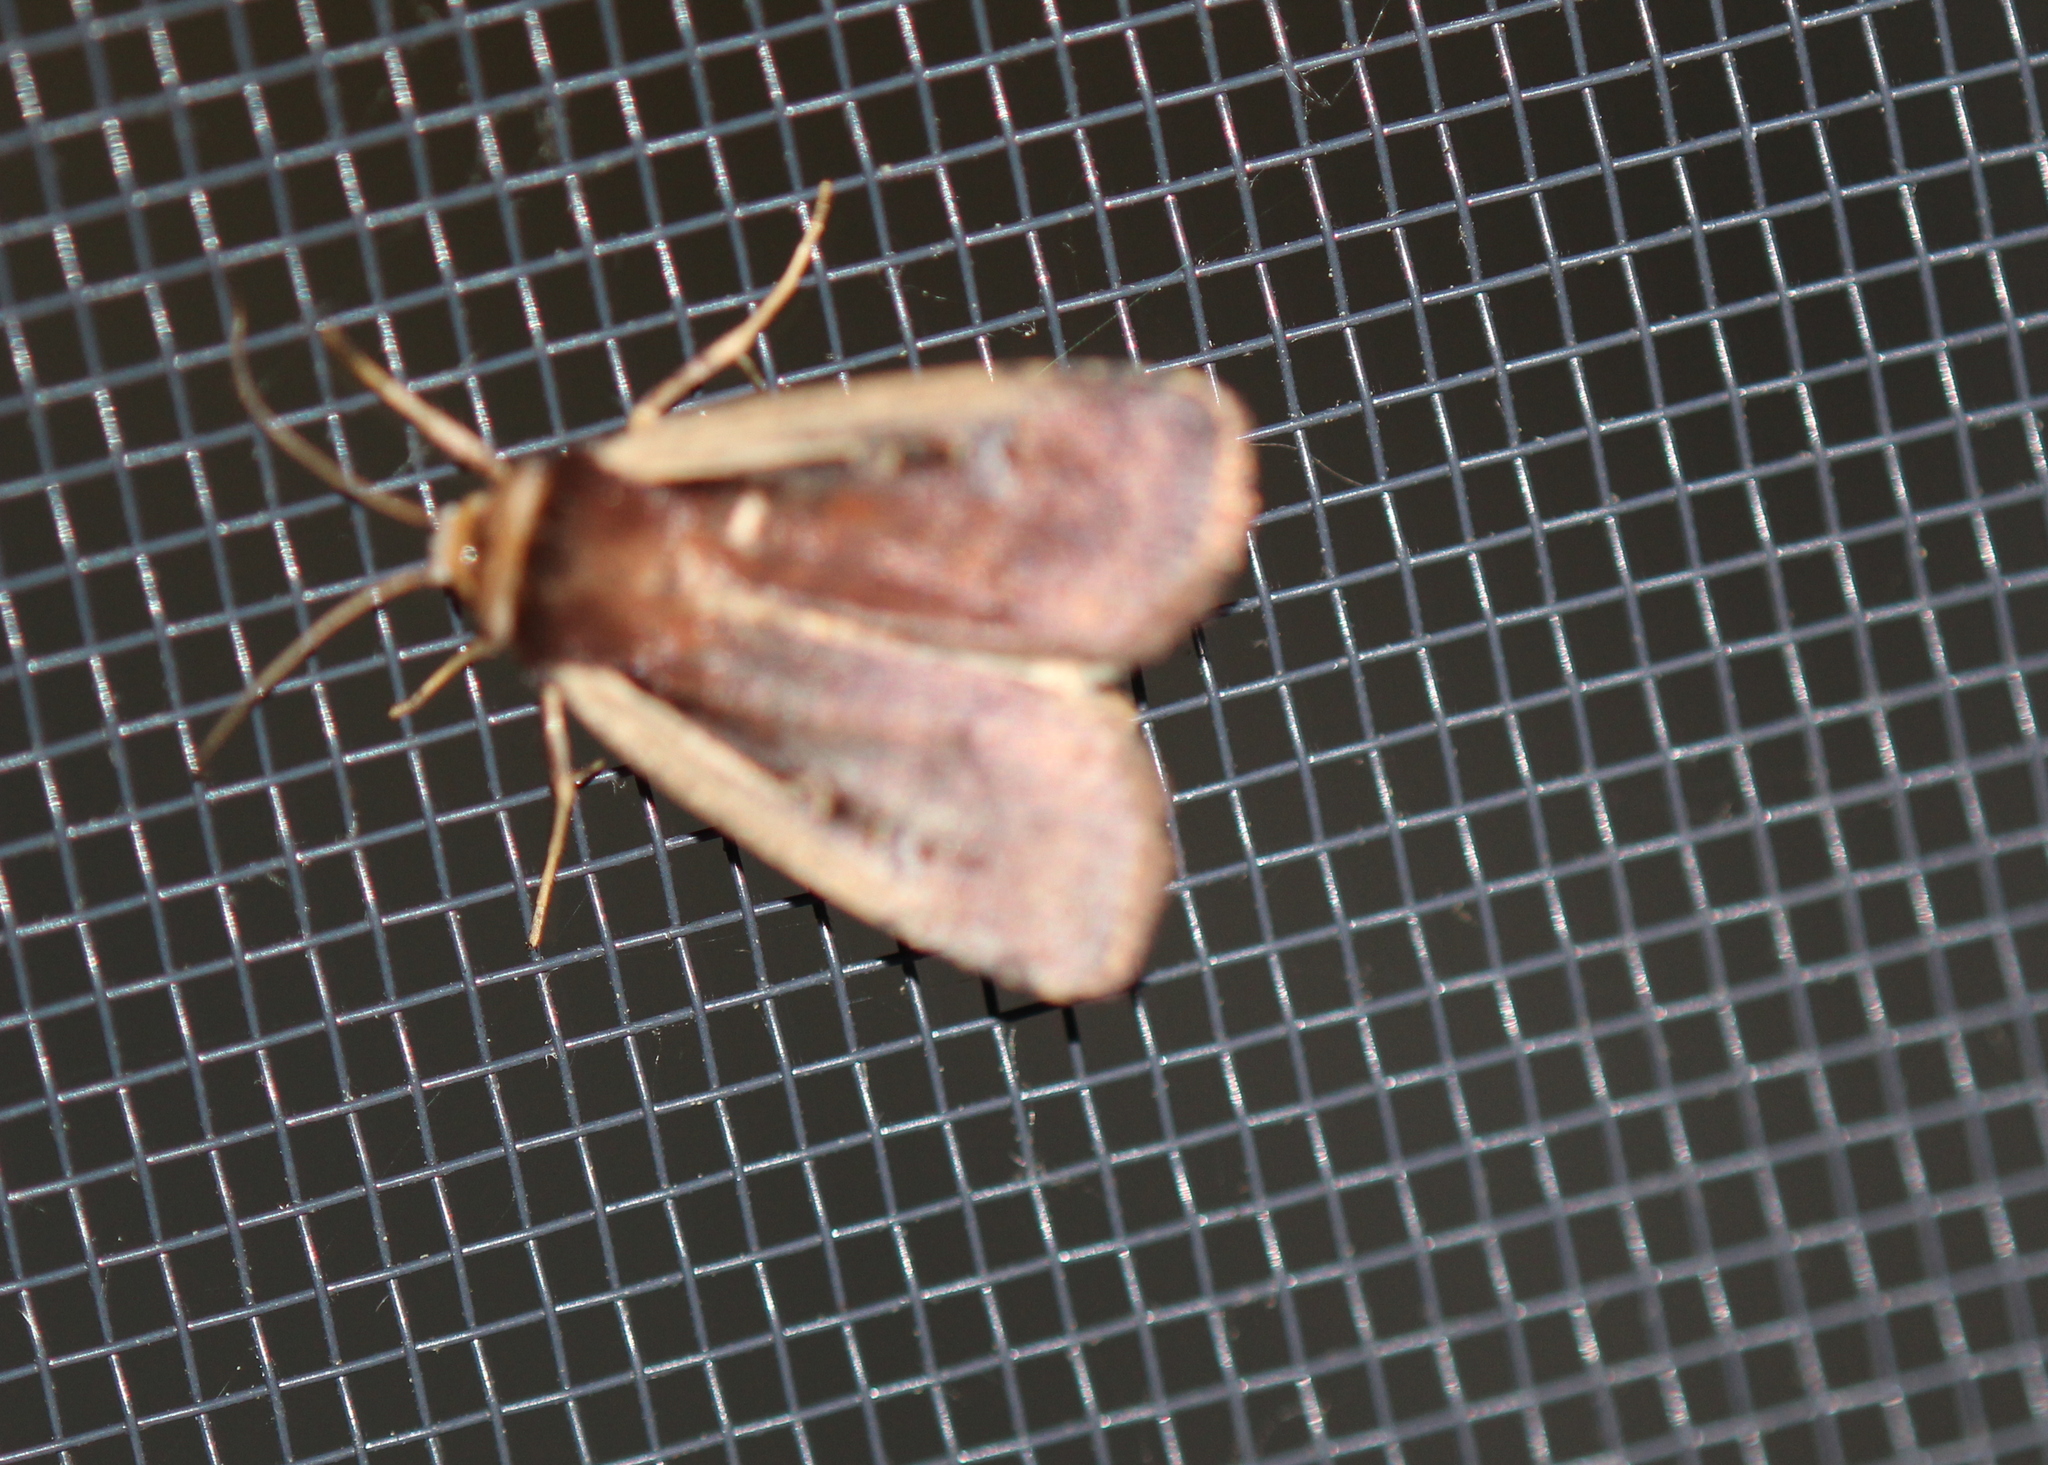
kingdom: Animalia
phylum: Arthropoda
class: Insecta
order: Lepidoptera
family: Noctuidae
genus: Ochropleura
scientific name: Ochropleura implecta
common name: Flame-shouldered dart
